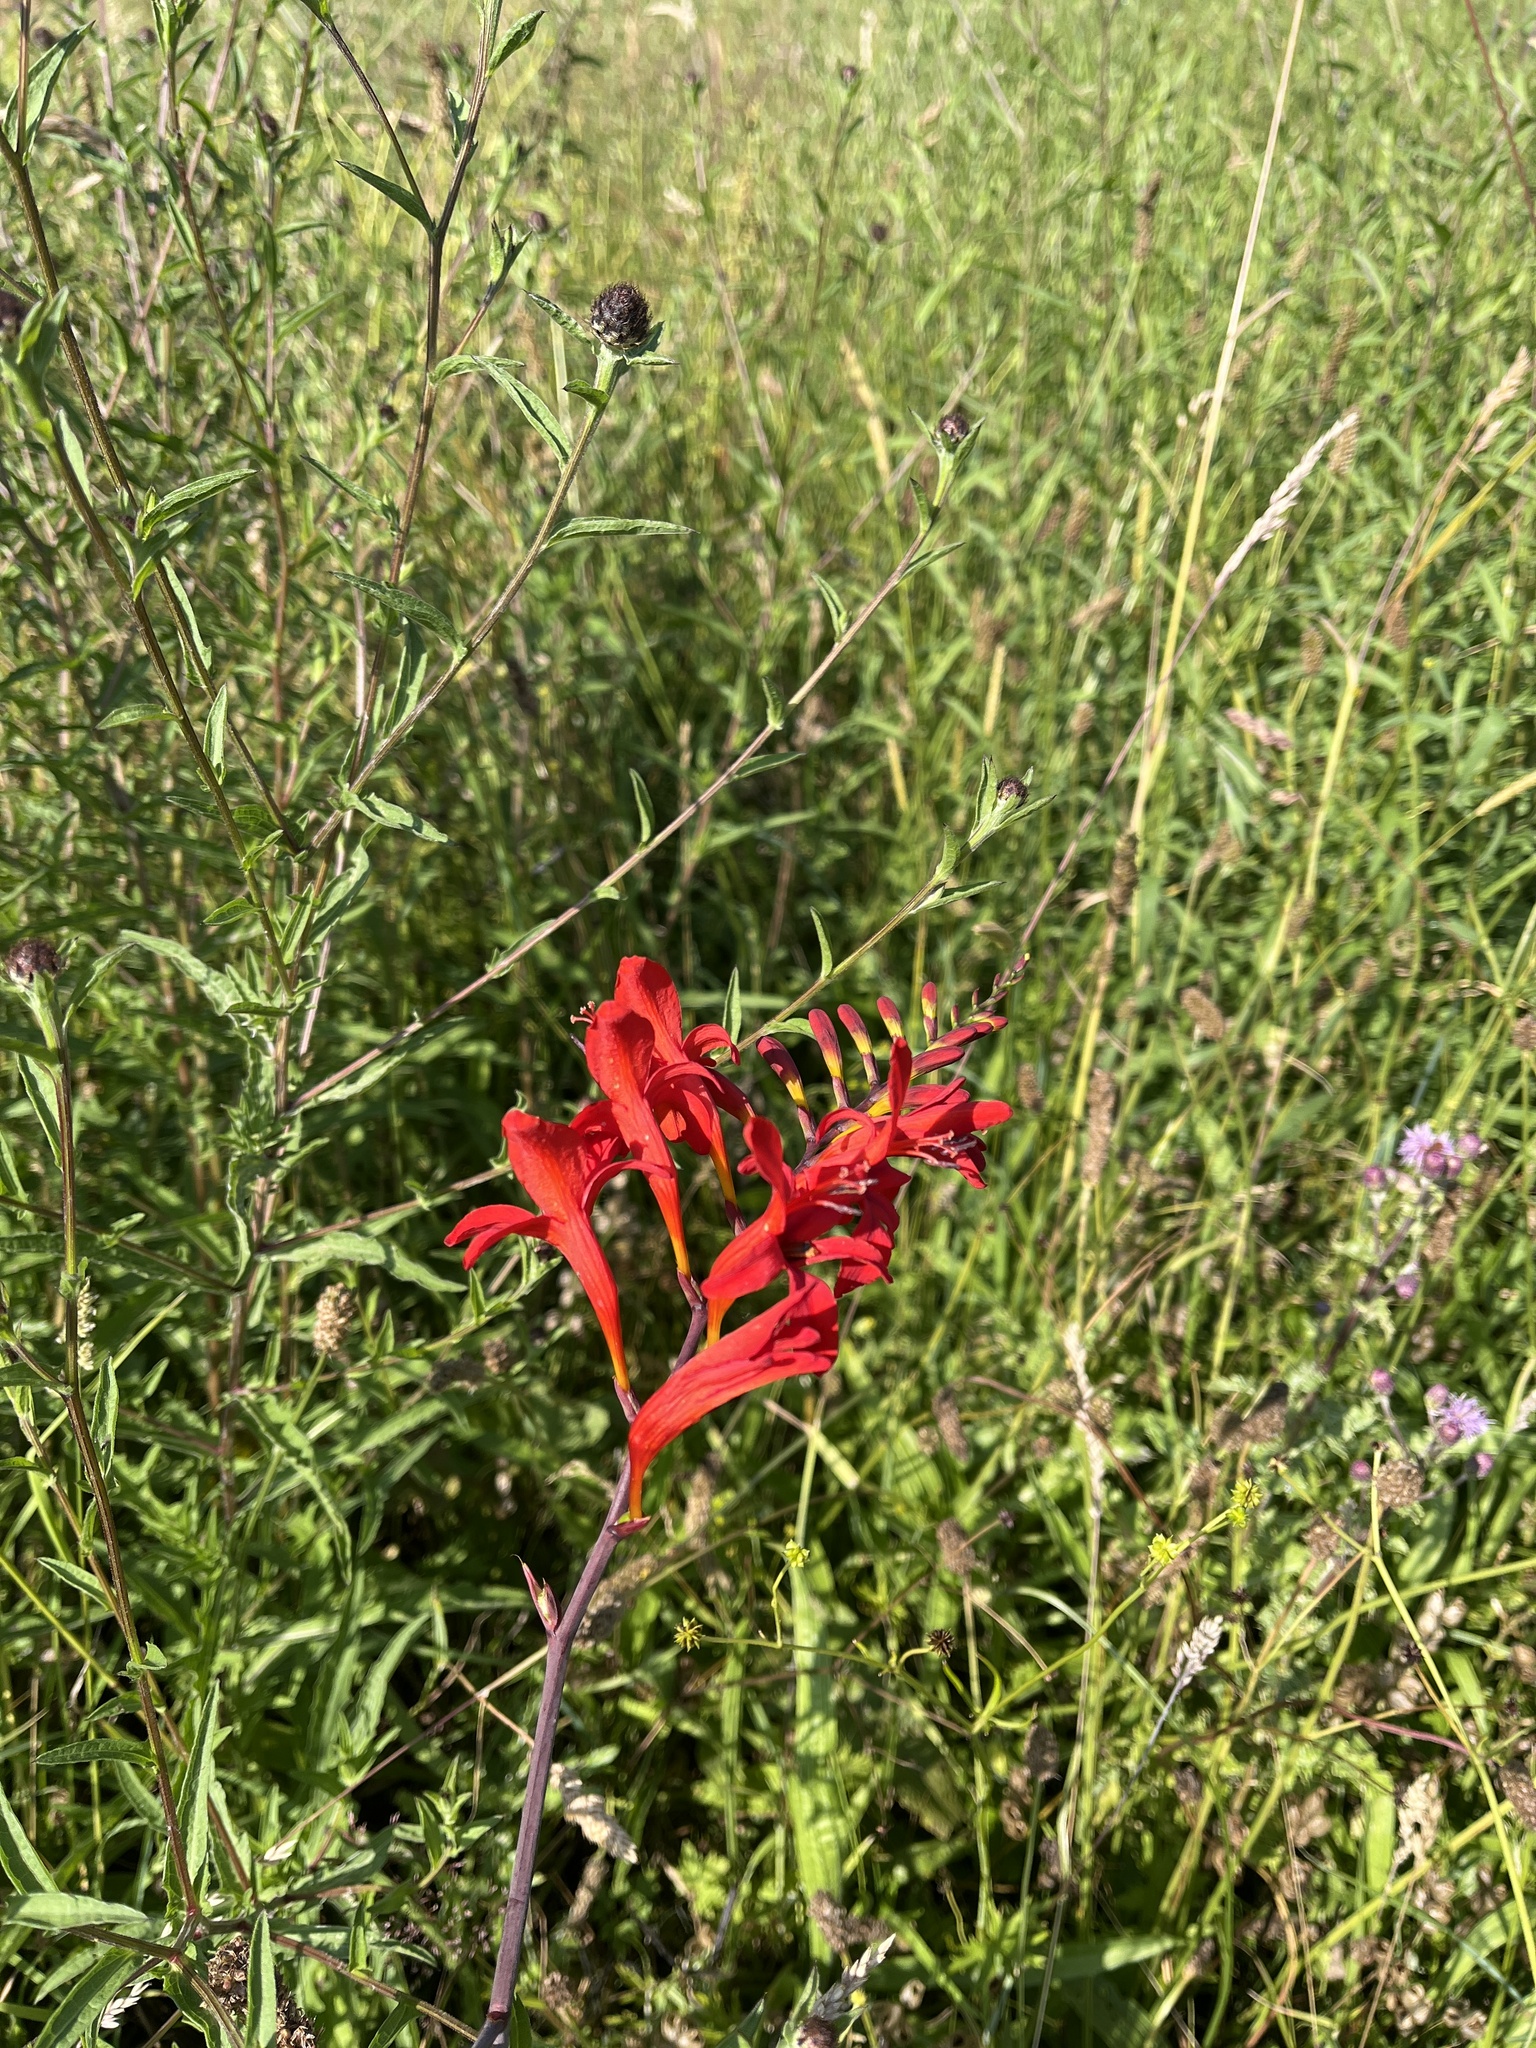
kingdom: Plantae
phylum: Tracheophyta
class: Liliopsida
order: Asparagales
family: Iridaceae
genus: Crocosmia
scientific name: Crocosmia
